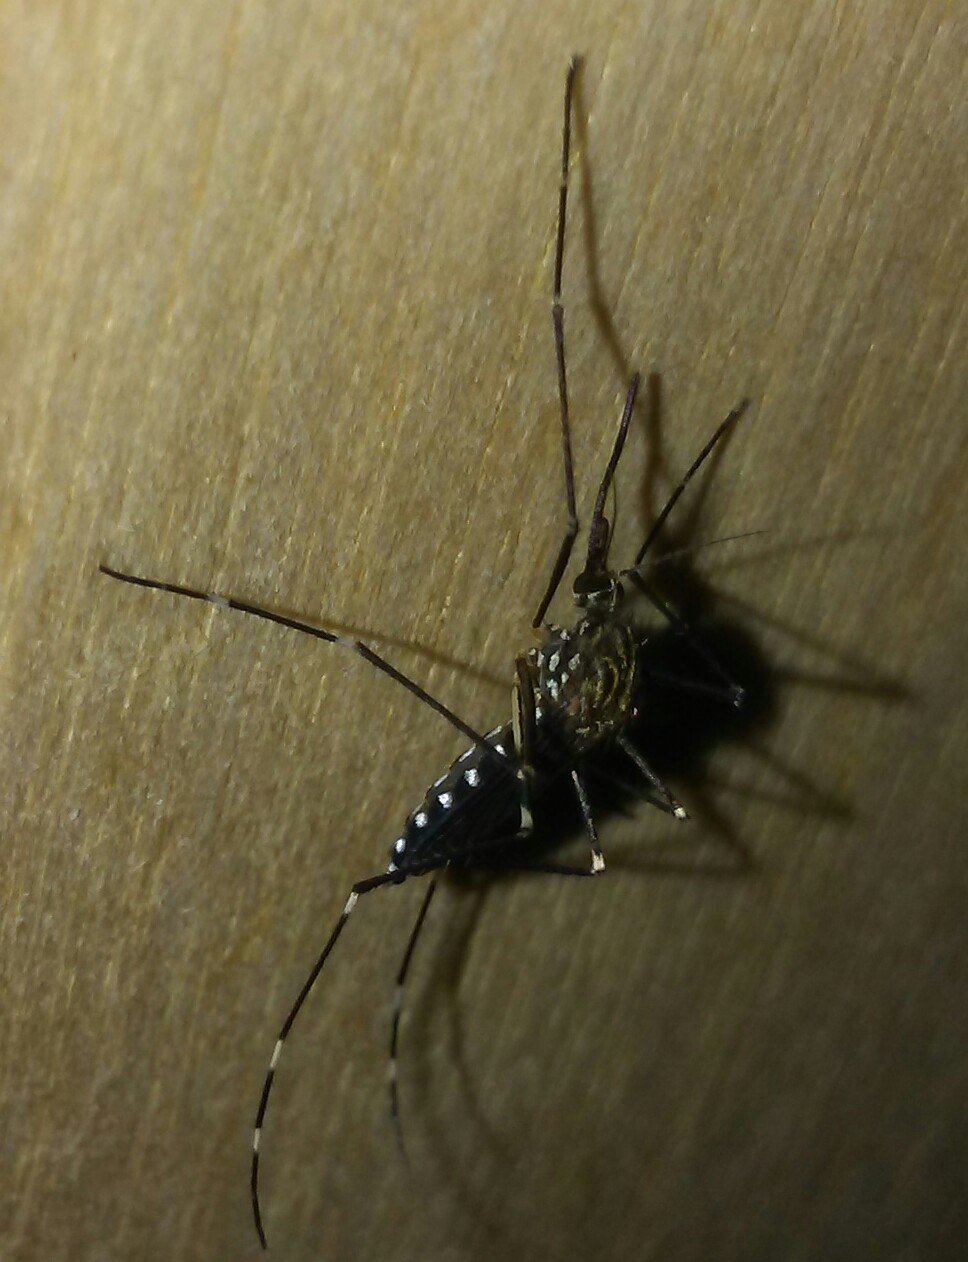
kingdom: Animalia
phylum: Arthropoda
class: Insecta
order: Diptera
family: Culicidae
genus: Aedes
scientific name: Aedes japonicus
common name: Asian bush mosquito
